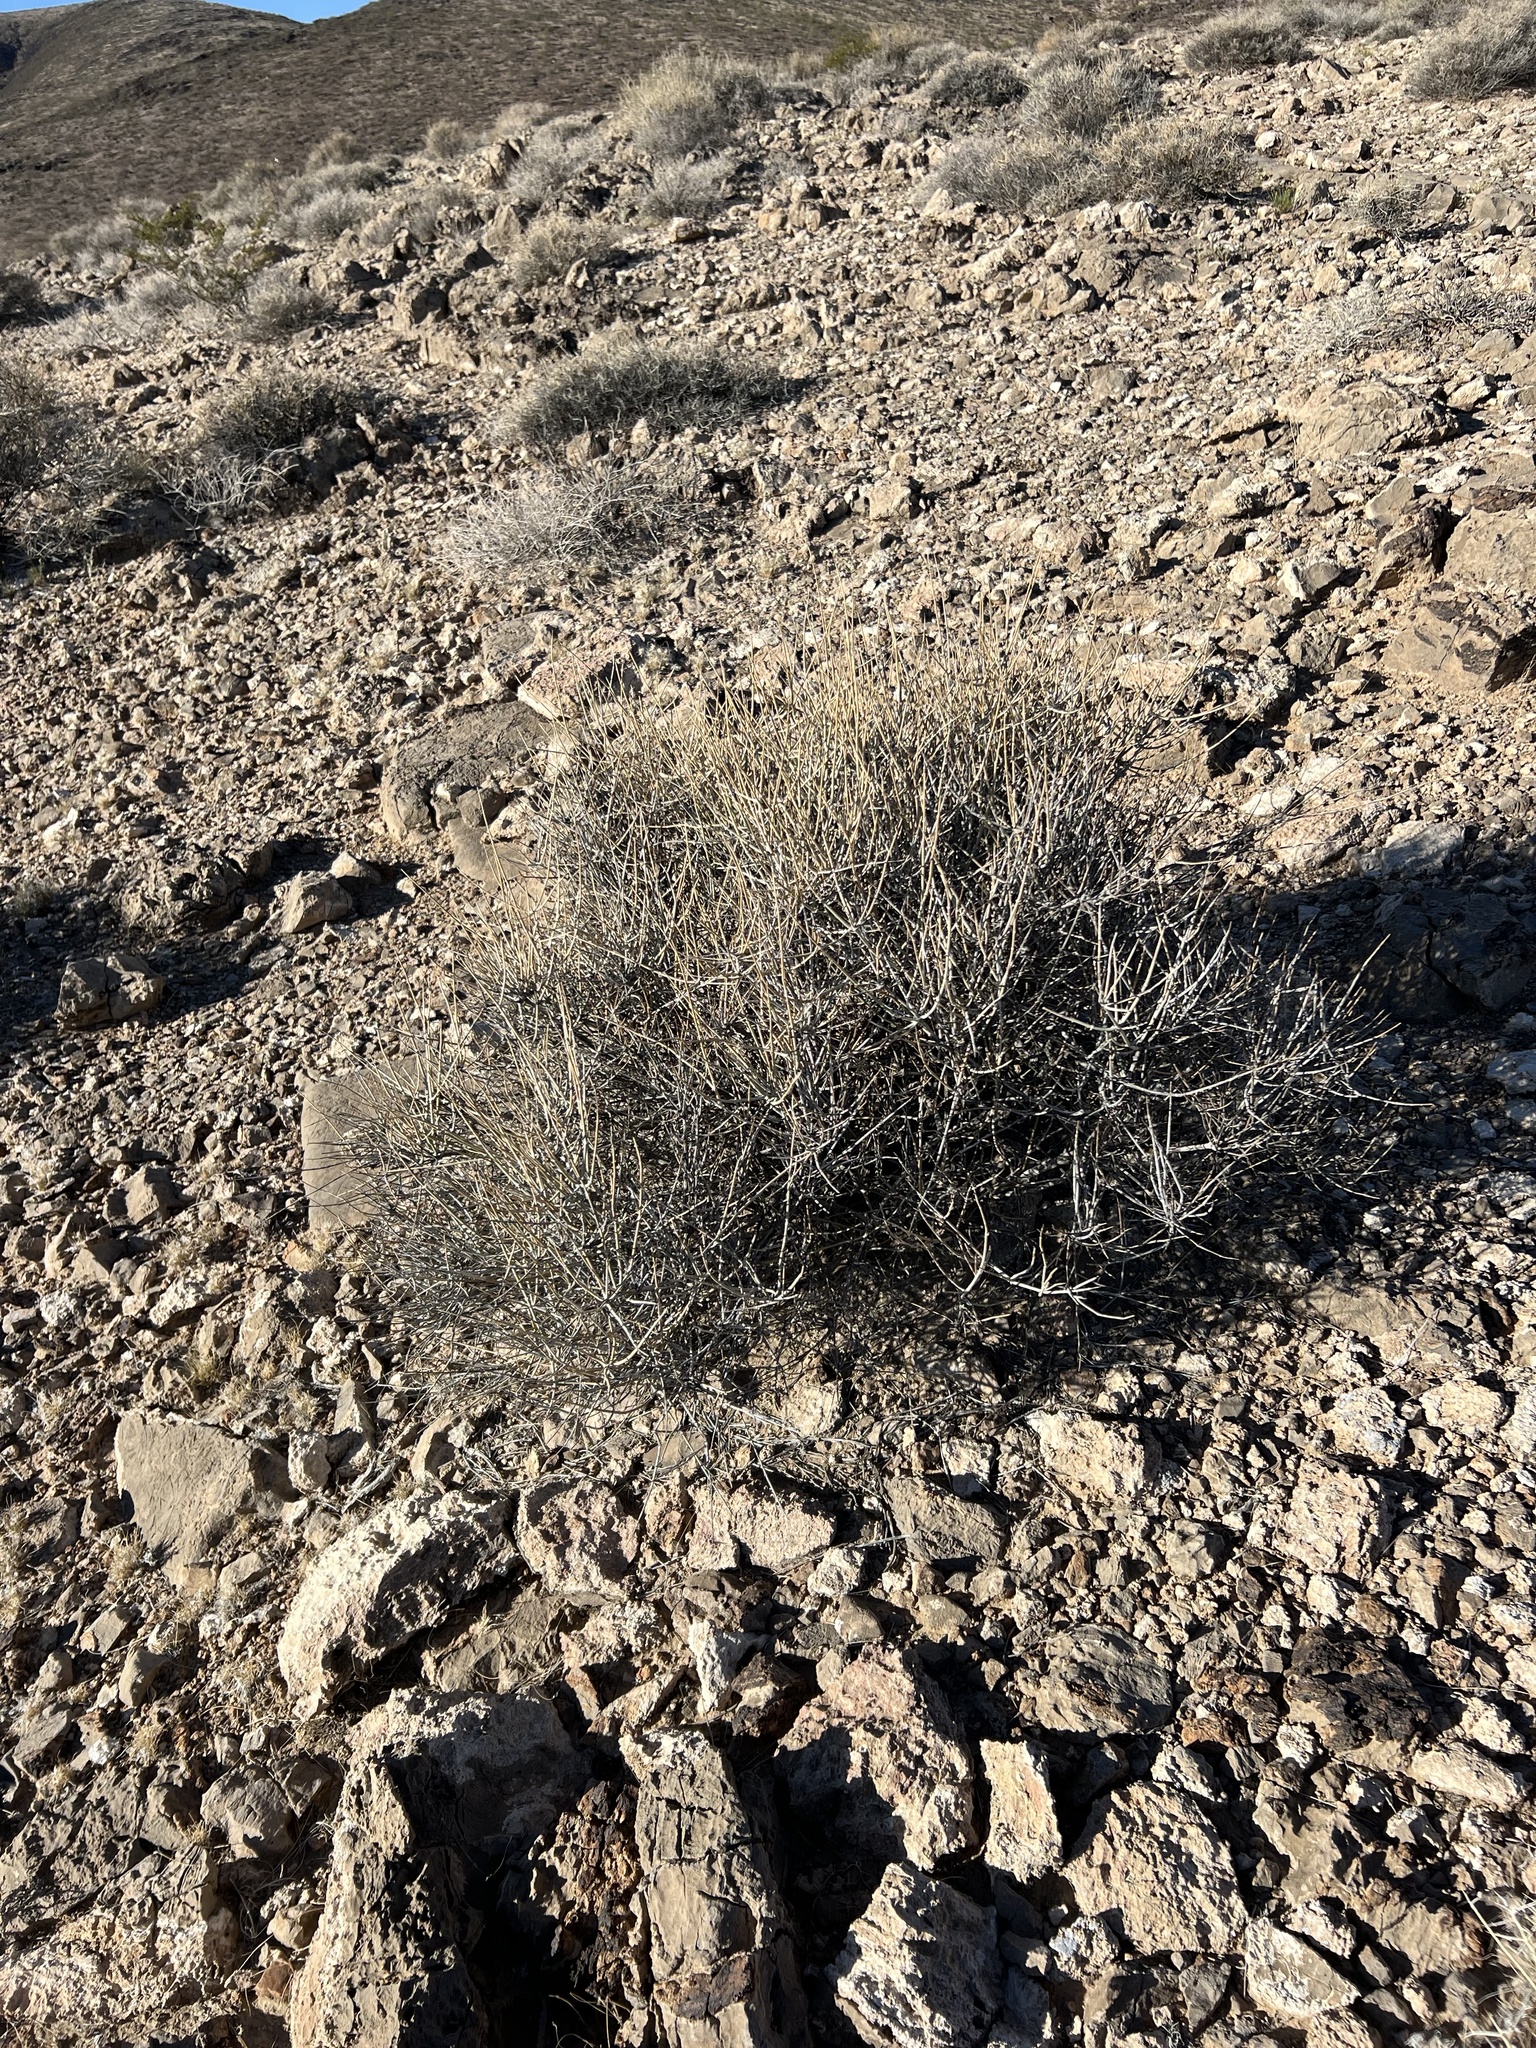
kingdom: Plantae
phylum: Tracheophyta
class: Gnetopsida
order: Ephedrales
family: Ephedraceae
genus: Ephedra
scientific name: Ephedra nevadensis
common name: Gray ephedra
